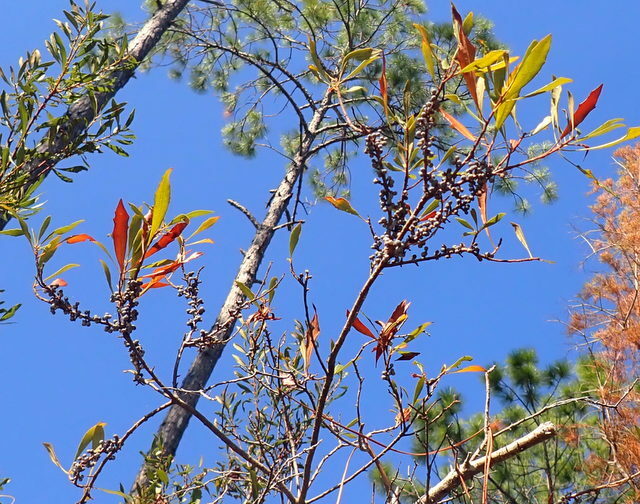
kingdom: Plantae
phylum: Tracheophyta
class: Magnoliopsida
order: Fagales
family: Myricaceae
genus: Morella
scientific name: Morella cerifera
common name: Wax myrtle
